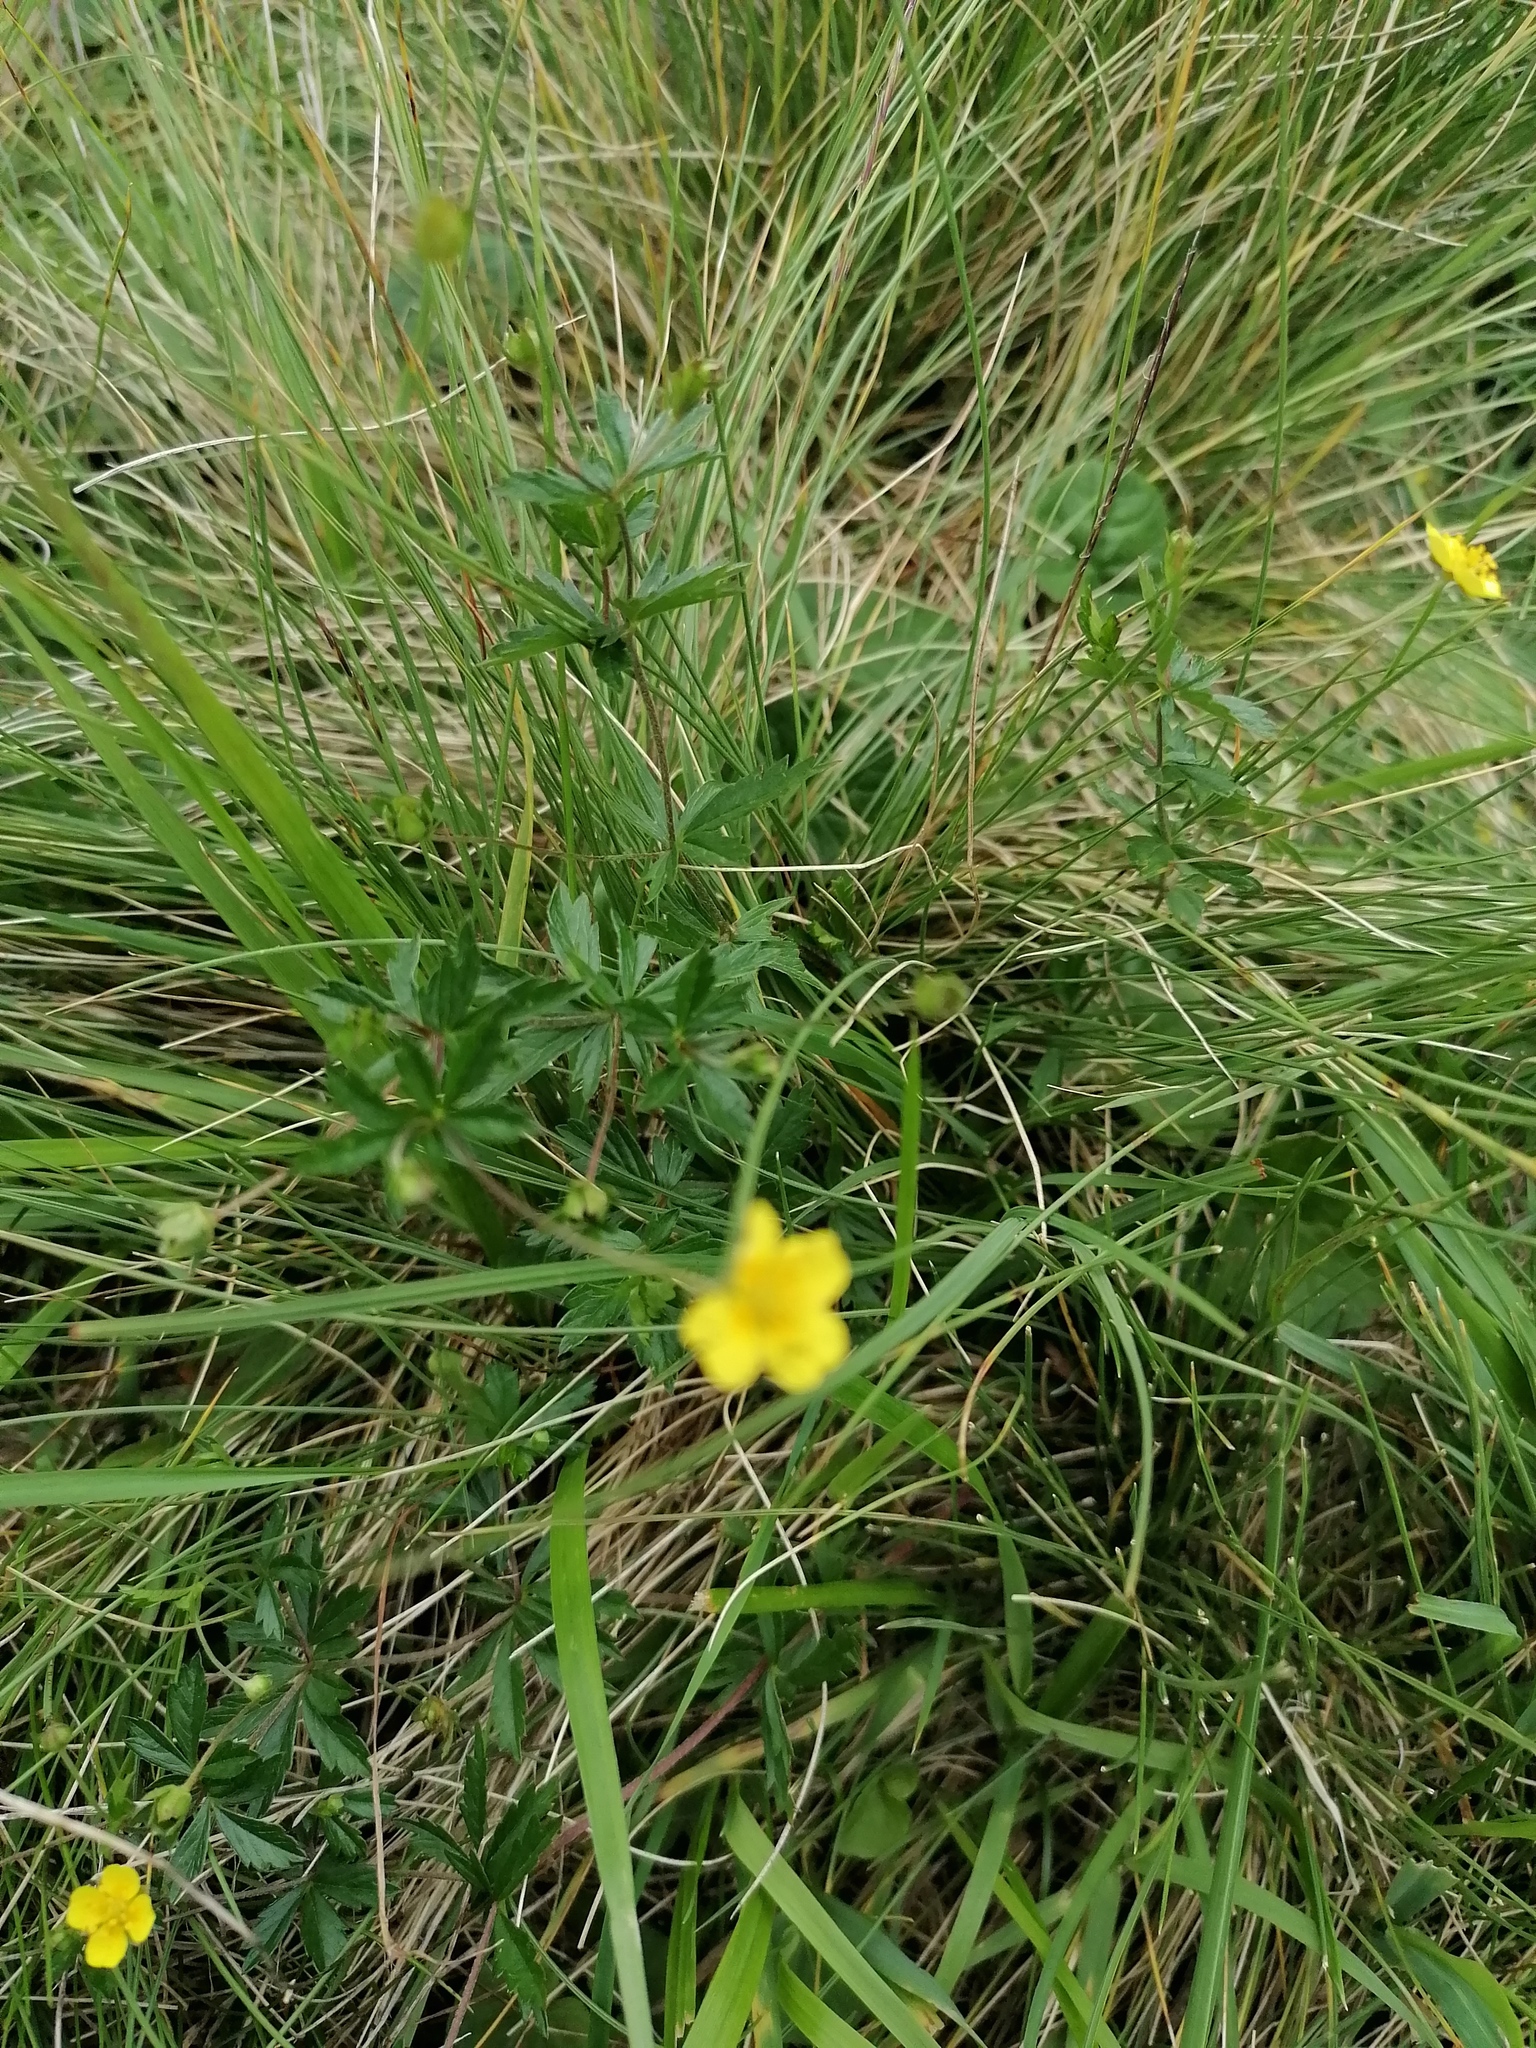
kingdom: Plantae
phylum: Tracheophyta
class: Magnoliopsida
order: Rosales
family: Rosaceae
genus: Potentilla
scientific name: Potentilla erecta
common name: Tormentil
